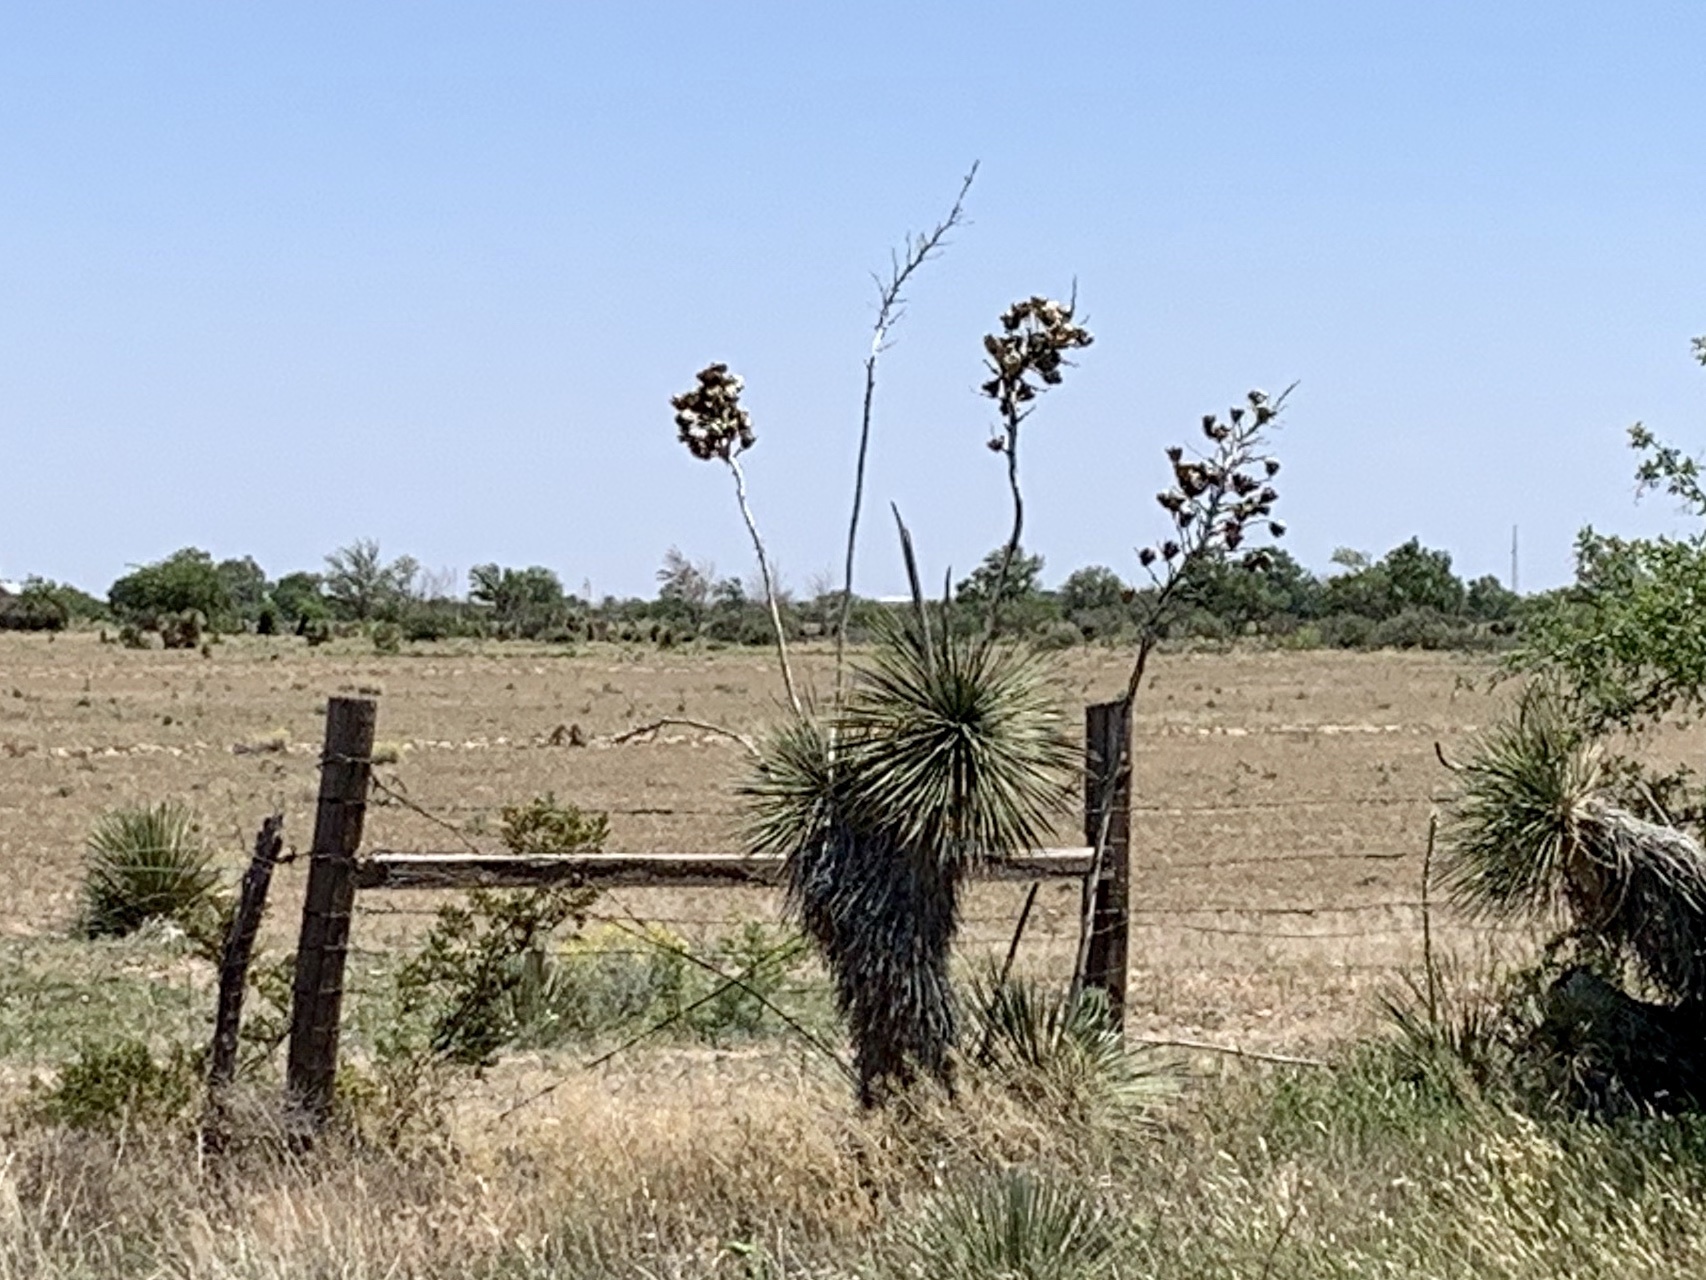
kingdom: Plantae
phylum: Tracheophyta
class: Liliopsida
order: Asparagales
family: Asparagaceae
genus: Yucca
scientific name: Yucca elata
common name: Palmella
